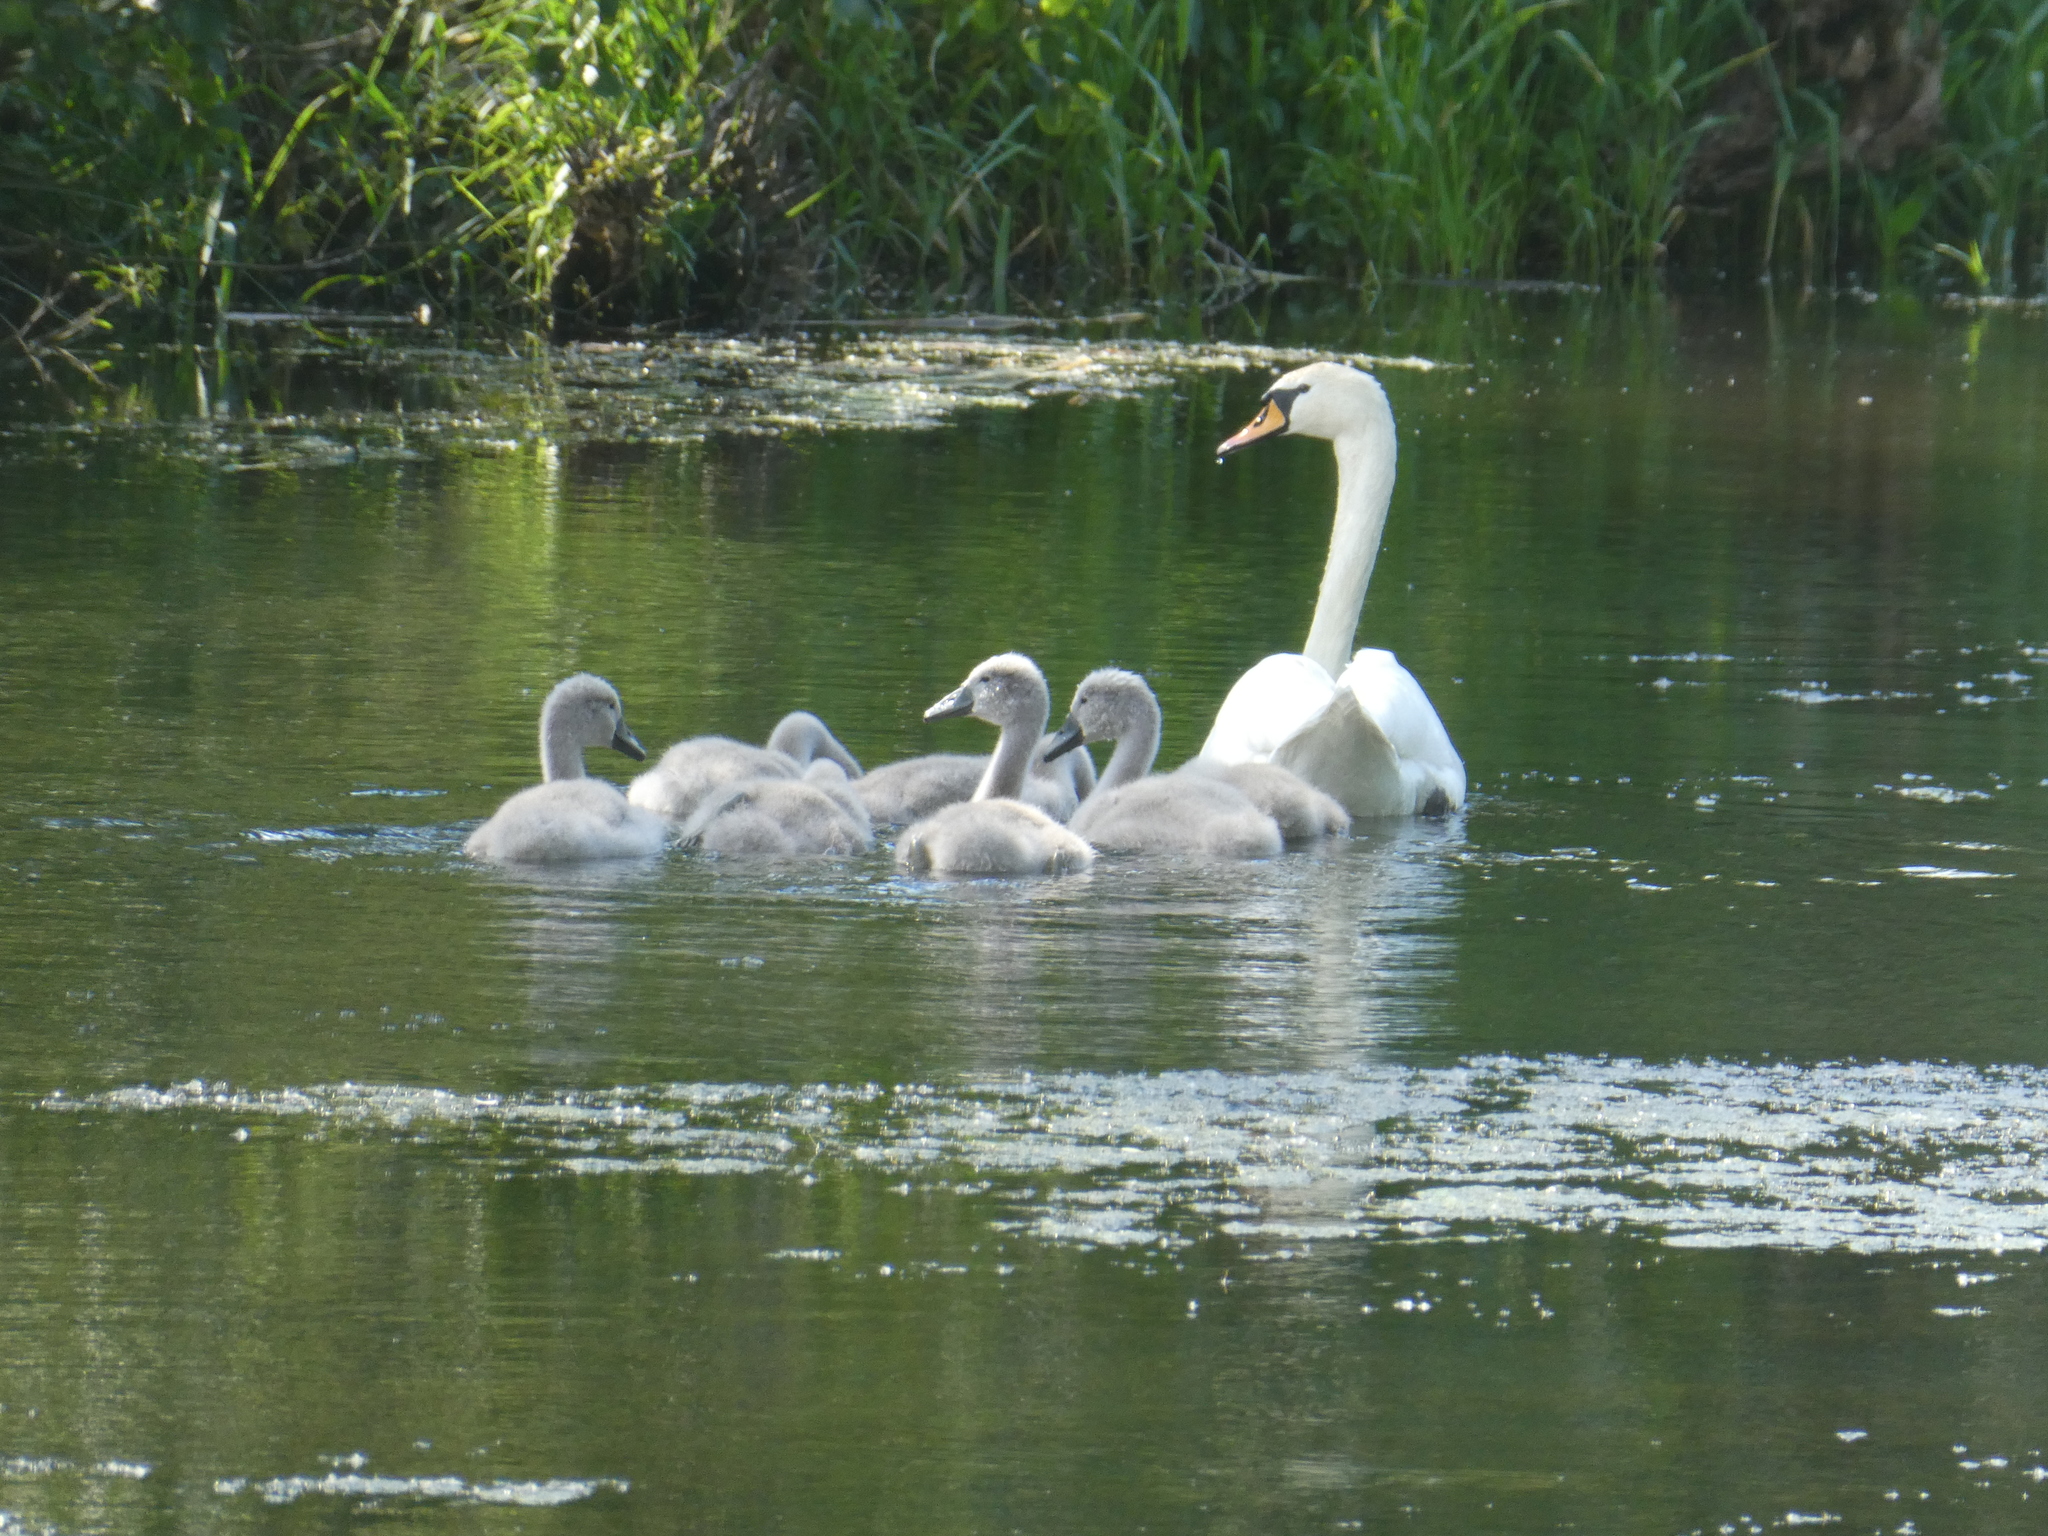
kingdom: Animalia
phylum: Chordata
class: Aves
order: Anseriformes
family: Anatidae
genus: Cygnus
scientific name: Cygnus olor
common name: Mute swan
